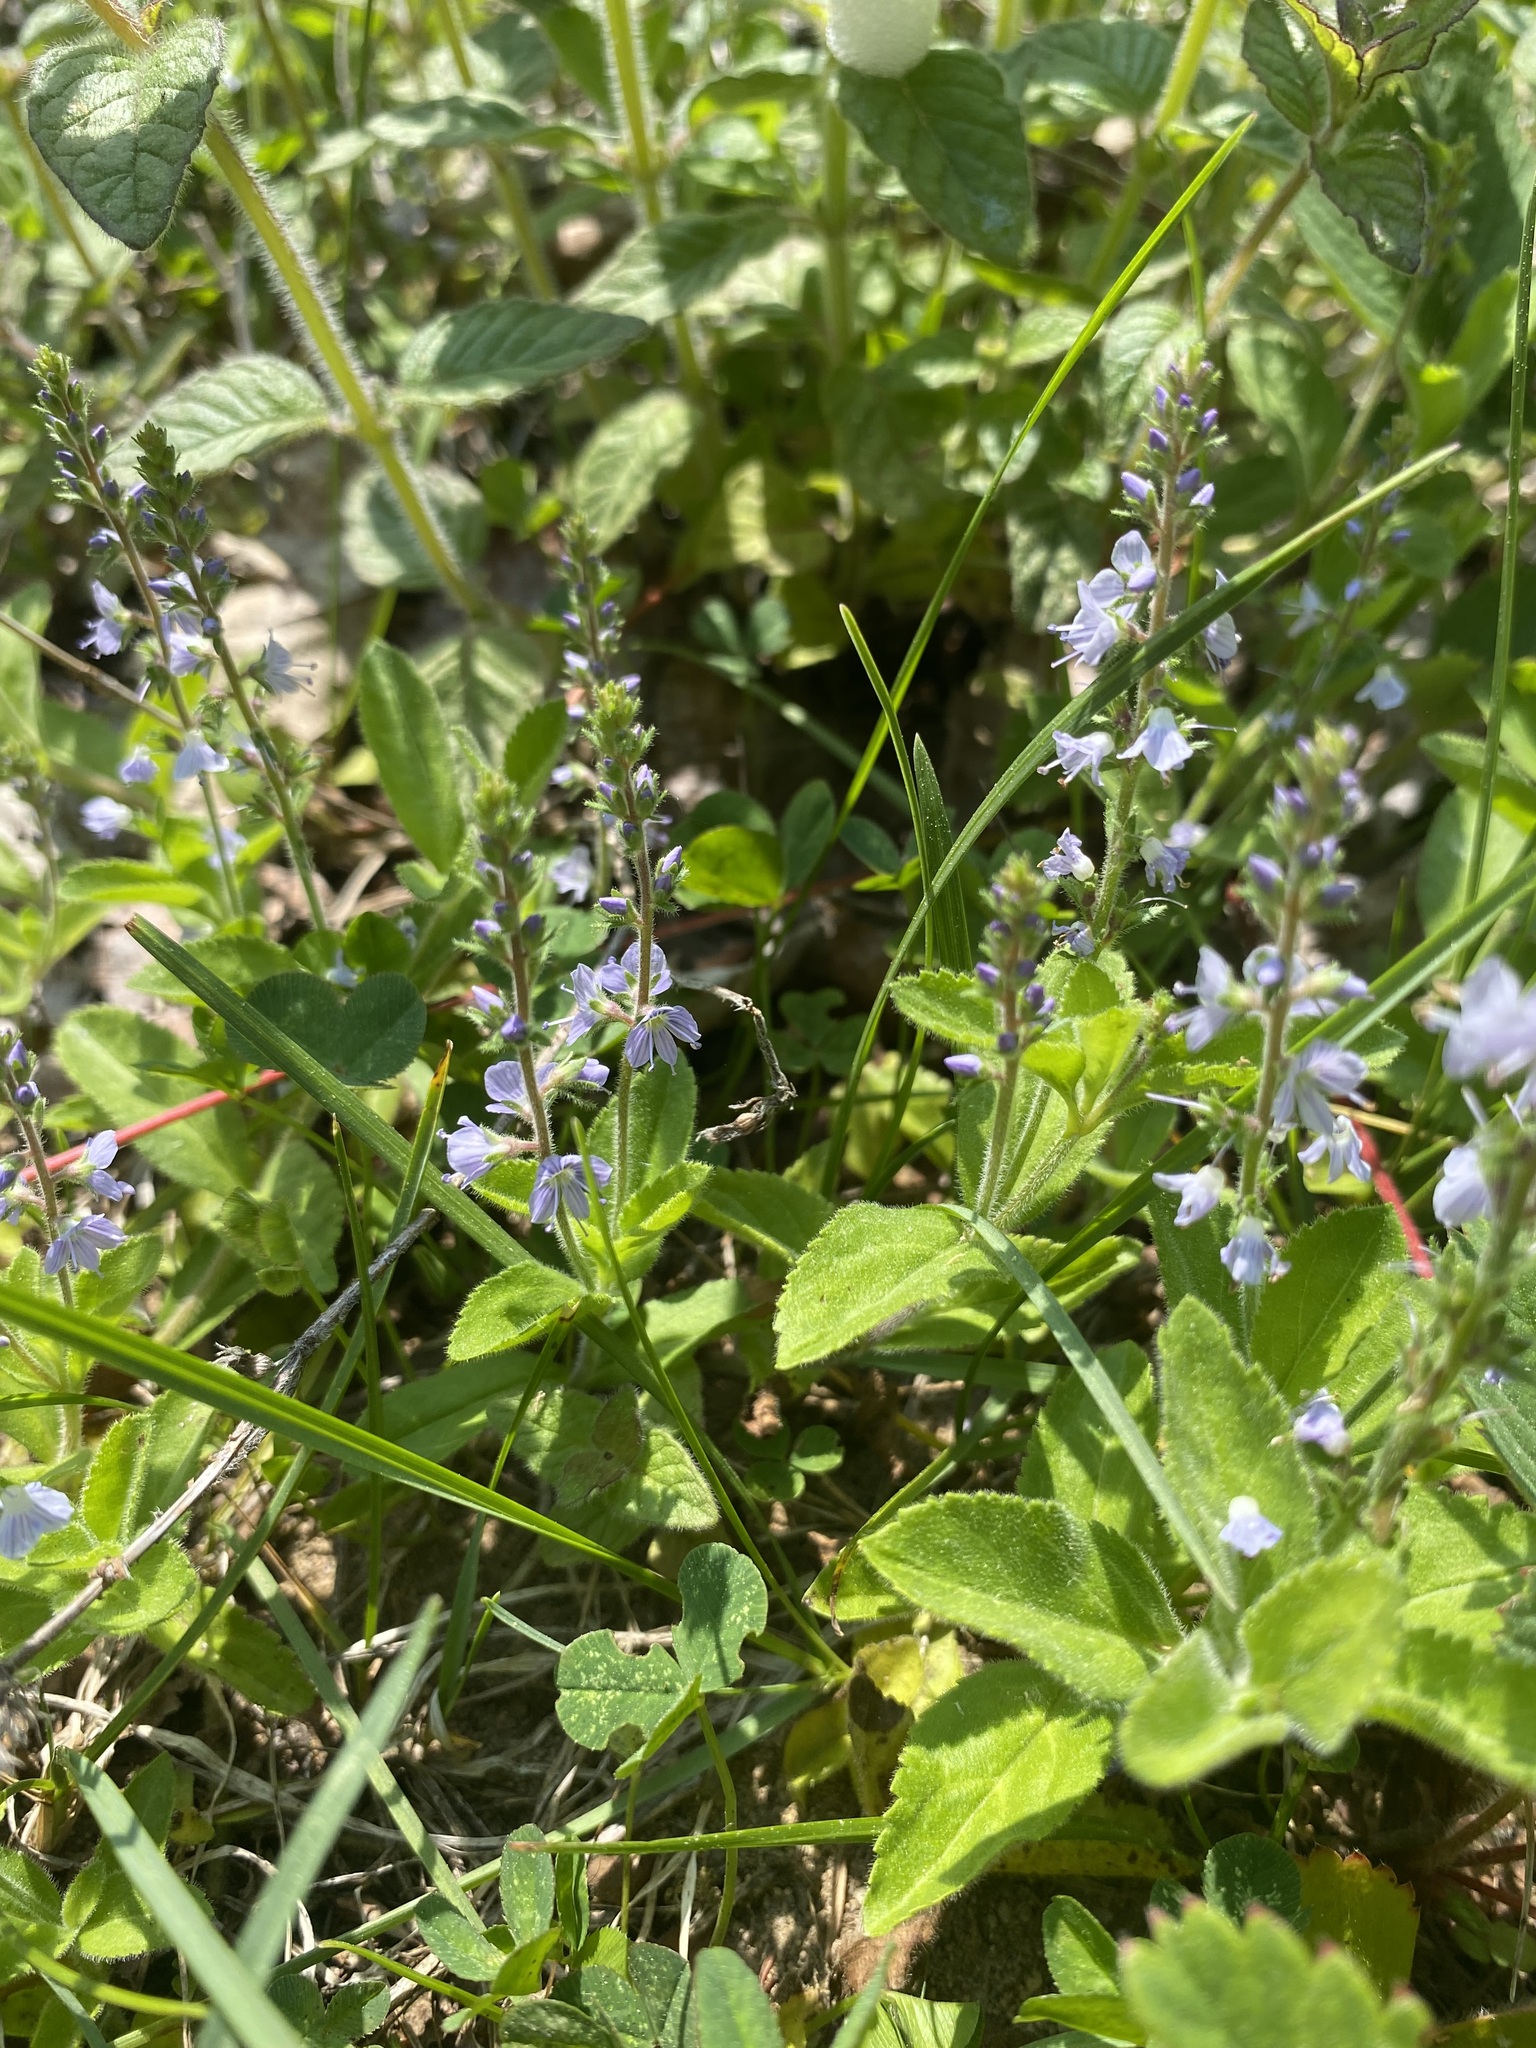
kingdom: Plantae
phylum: Tracheophyta
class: Magnoliopsida
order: Lamiales
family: Plantaginaceae
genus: Veronica
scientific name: Veronica officinalis
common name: Common speedwell
